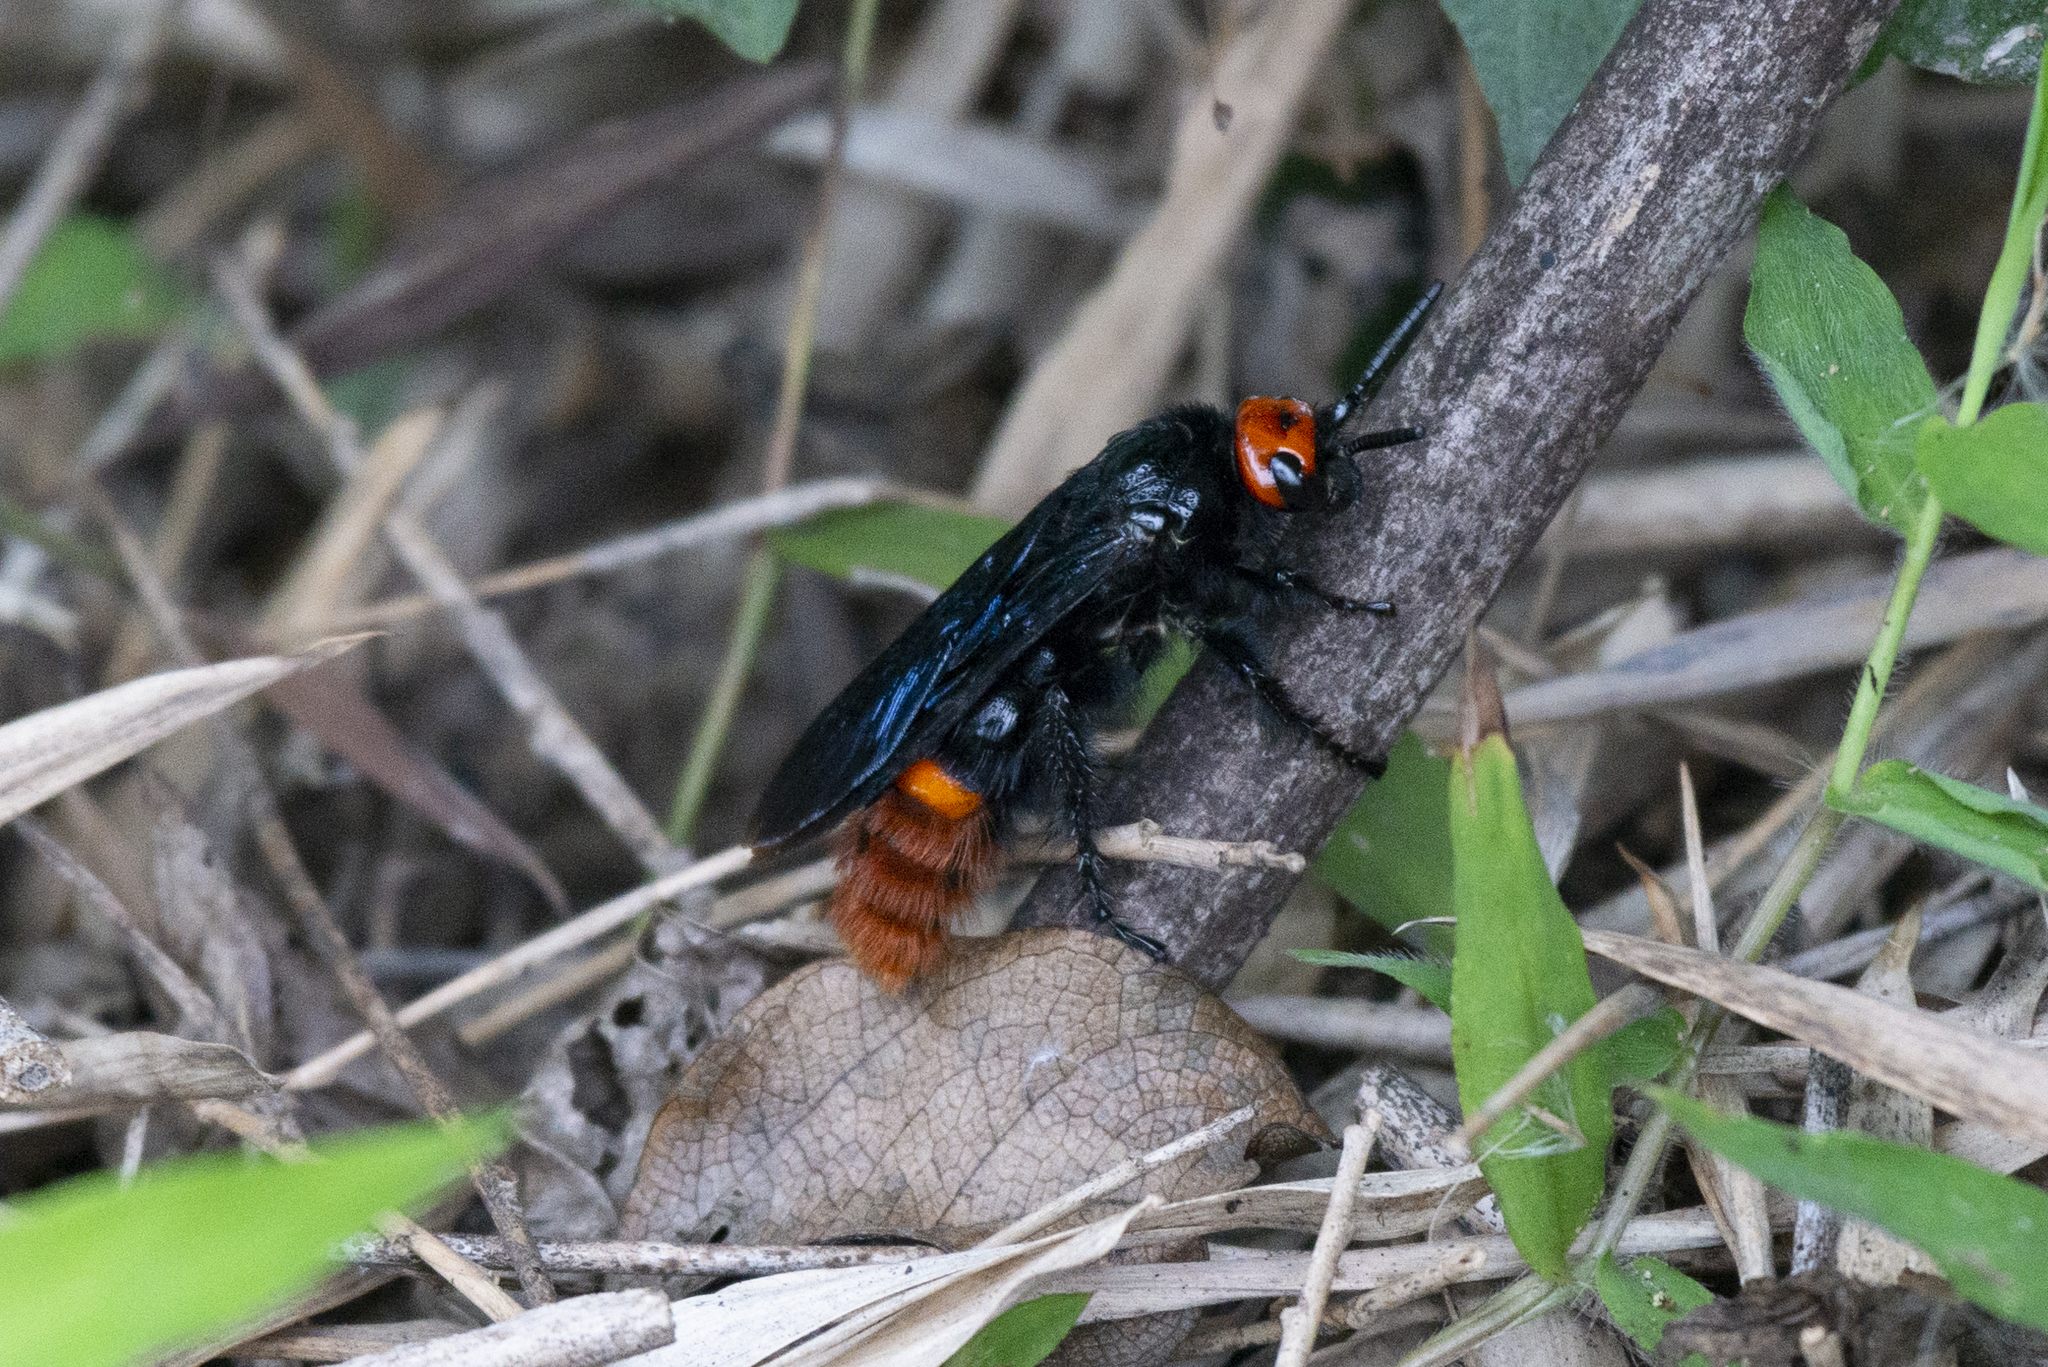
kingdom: Animalia
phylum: Arthropoda
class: Insecta
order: Hymenoptera
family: Scoliidae
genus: Megascolia
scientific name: Megascolia azurea
